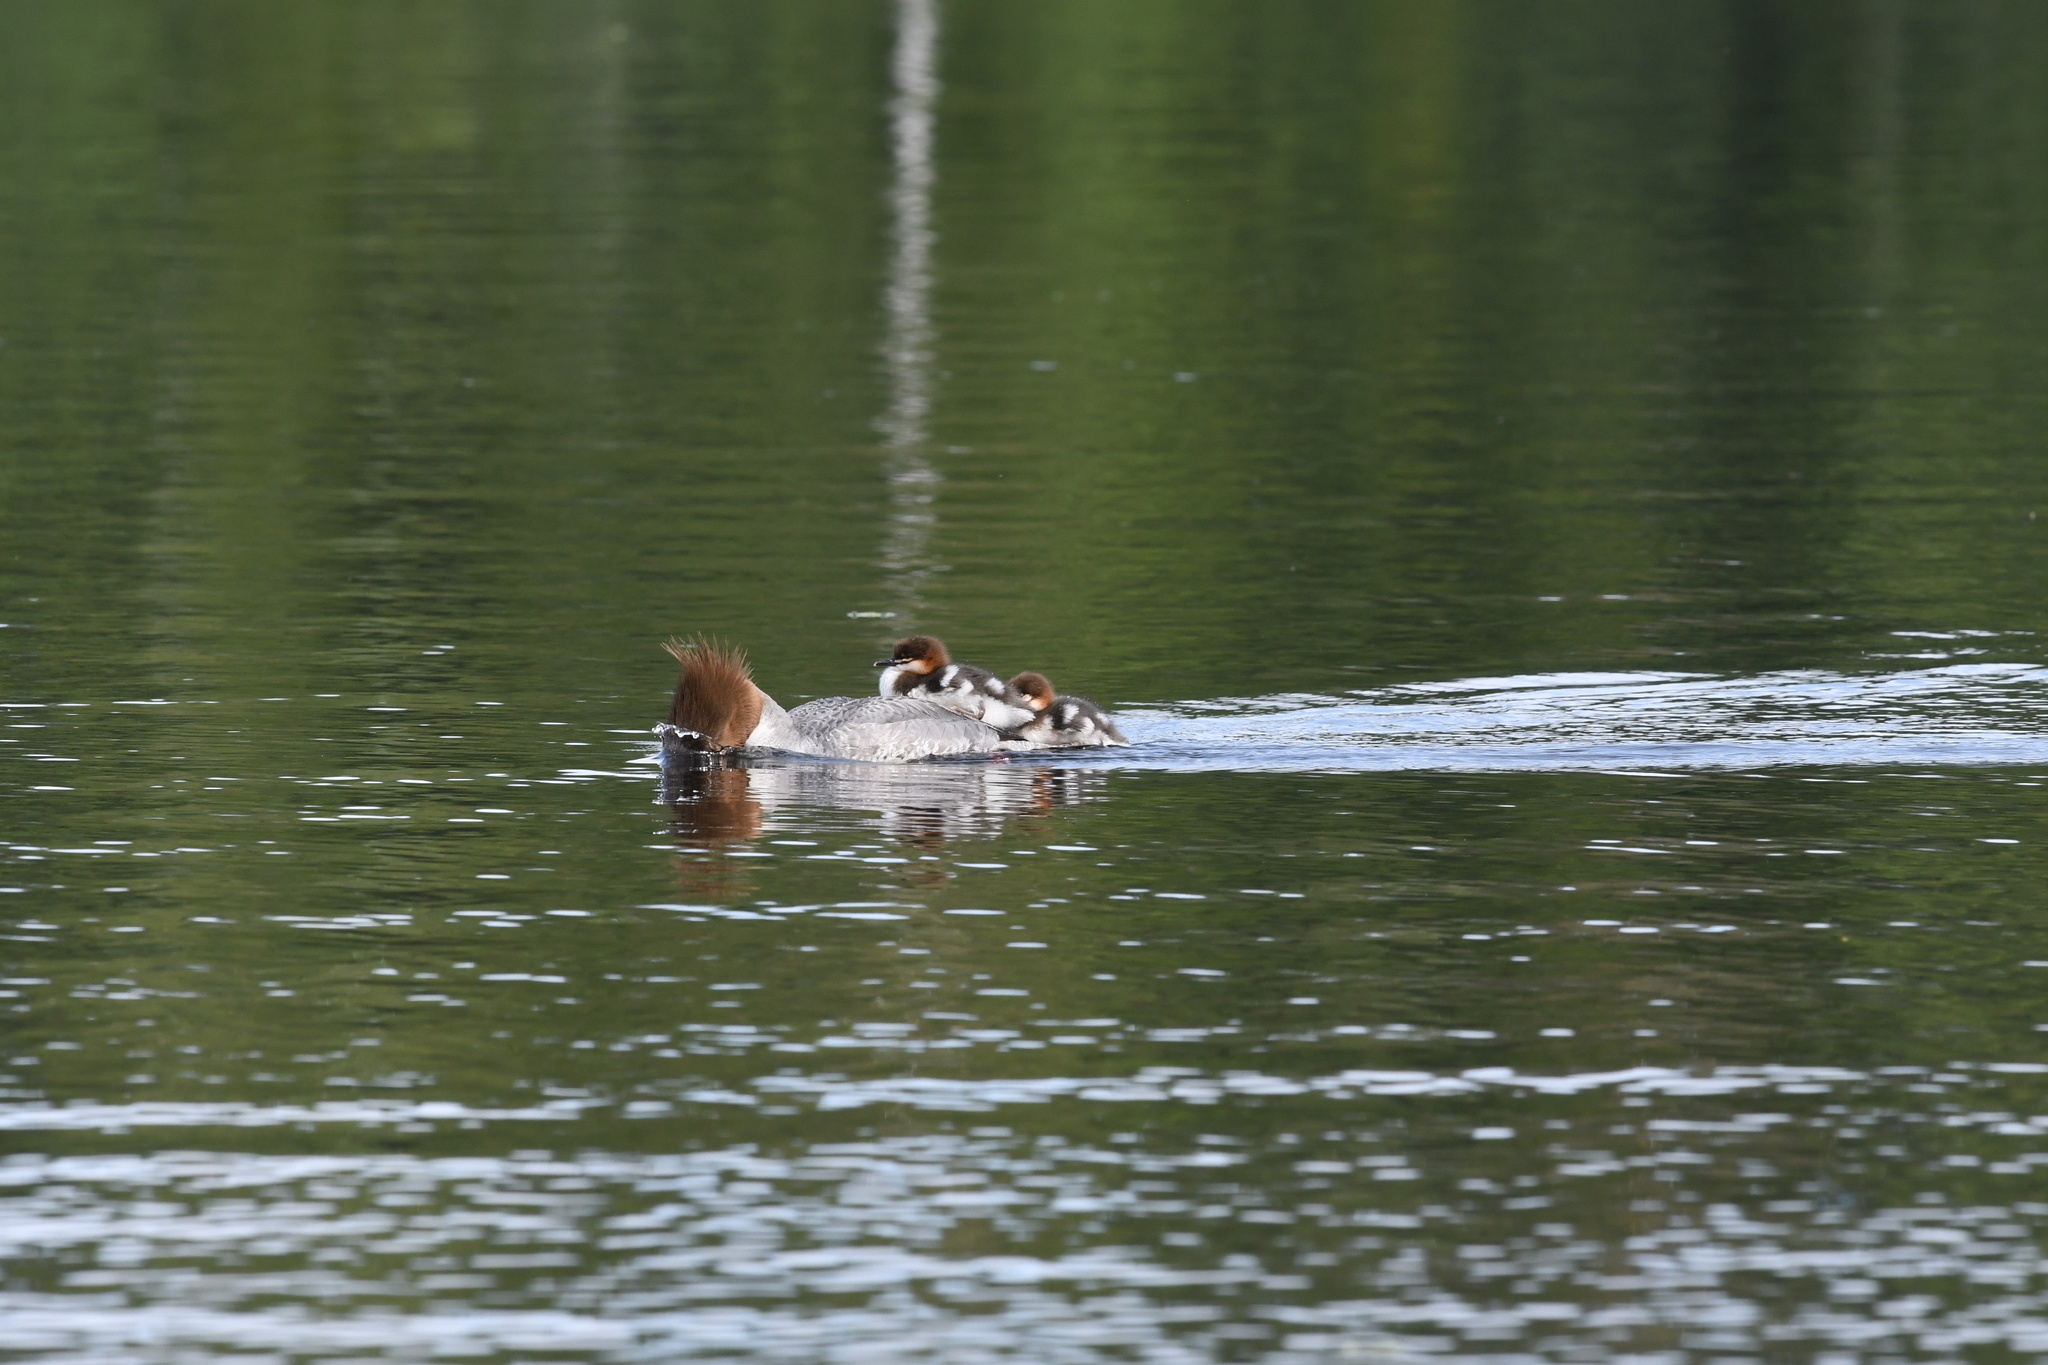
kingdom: Animalia
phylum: Chordata
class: Aves
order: Anseriformes
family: Anatidae
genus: Mergus
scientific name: Mergus merganser
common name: Common merganser
